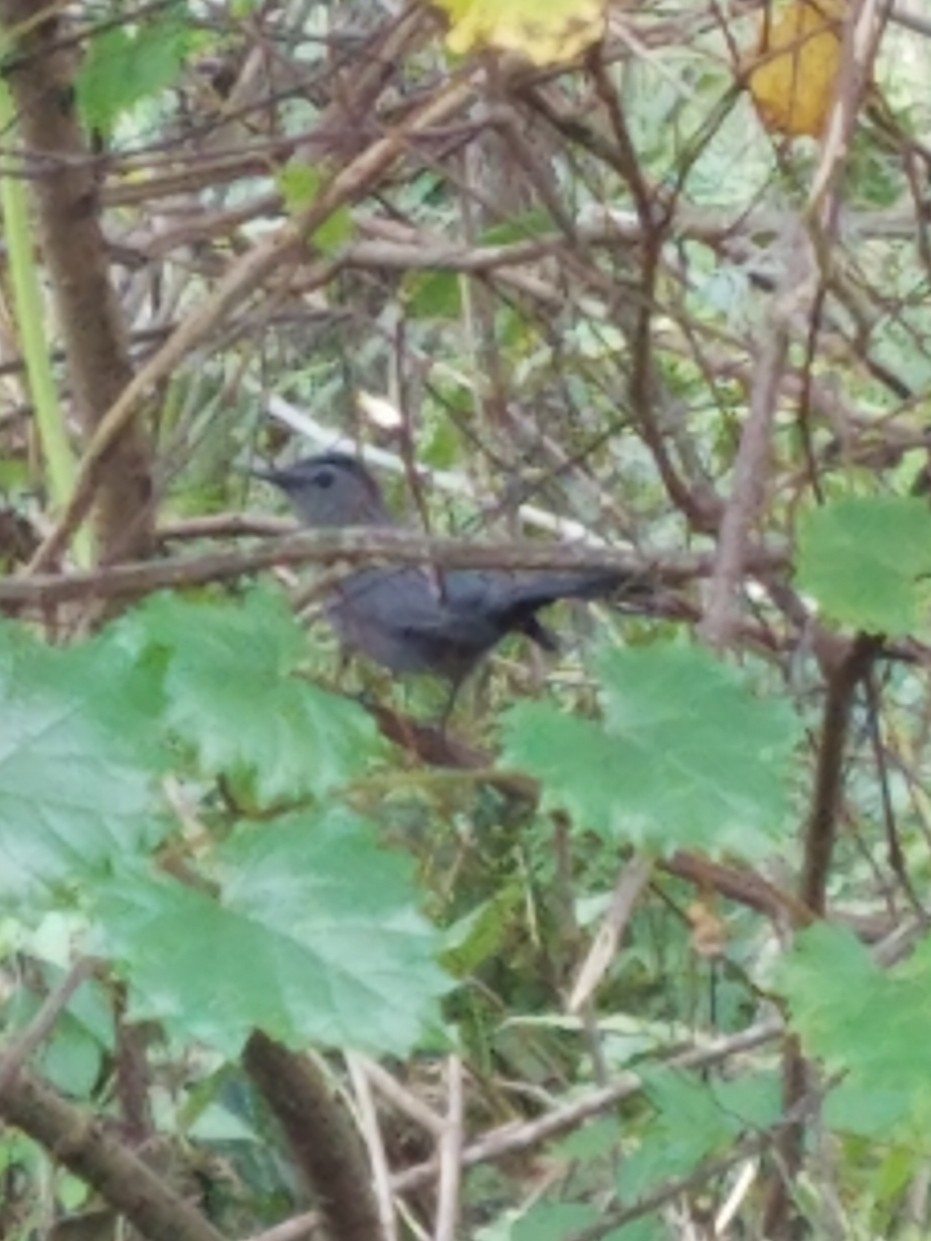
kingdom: Animalia
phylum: Chordata
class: Aves
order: Passeriformes
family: Mimidae
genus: Dumetella
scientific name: Dumetella carolinensis
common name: Gray catbird
